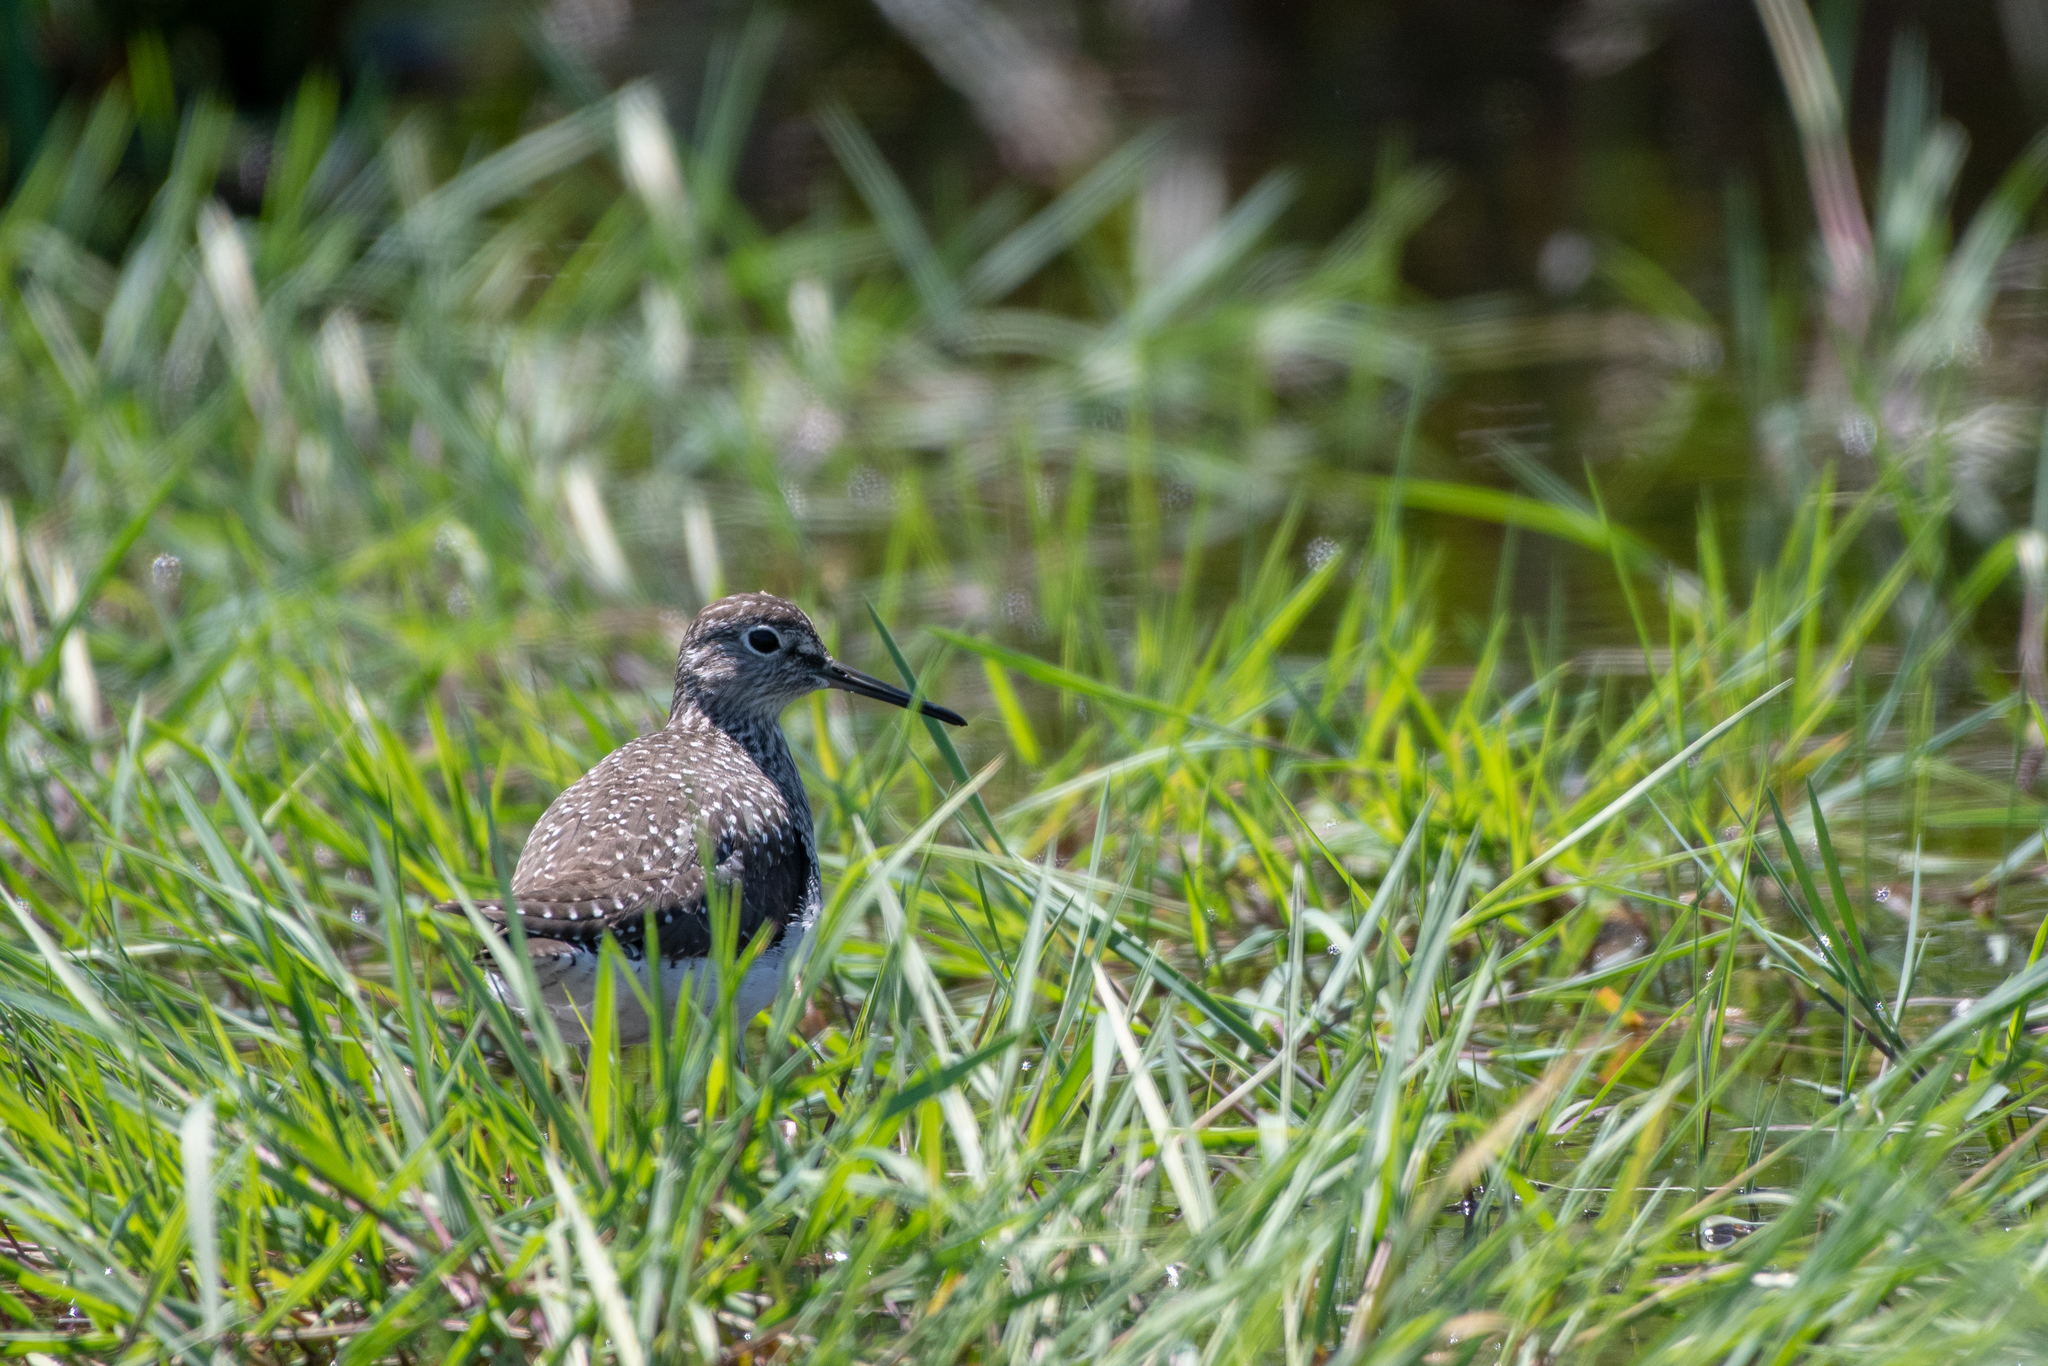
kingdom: Animalia
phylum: Chordata
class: Aves
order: Charadriiformes
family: Scolopacidae
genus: Tringa
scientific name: Tringa solitaria
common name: Solitary sandpiper
